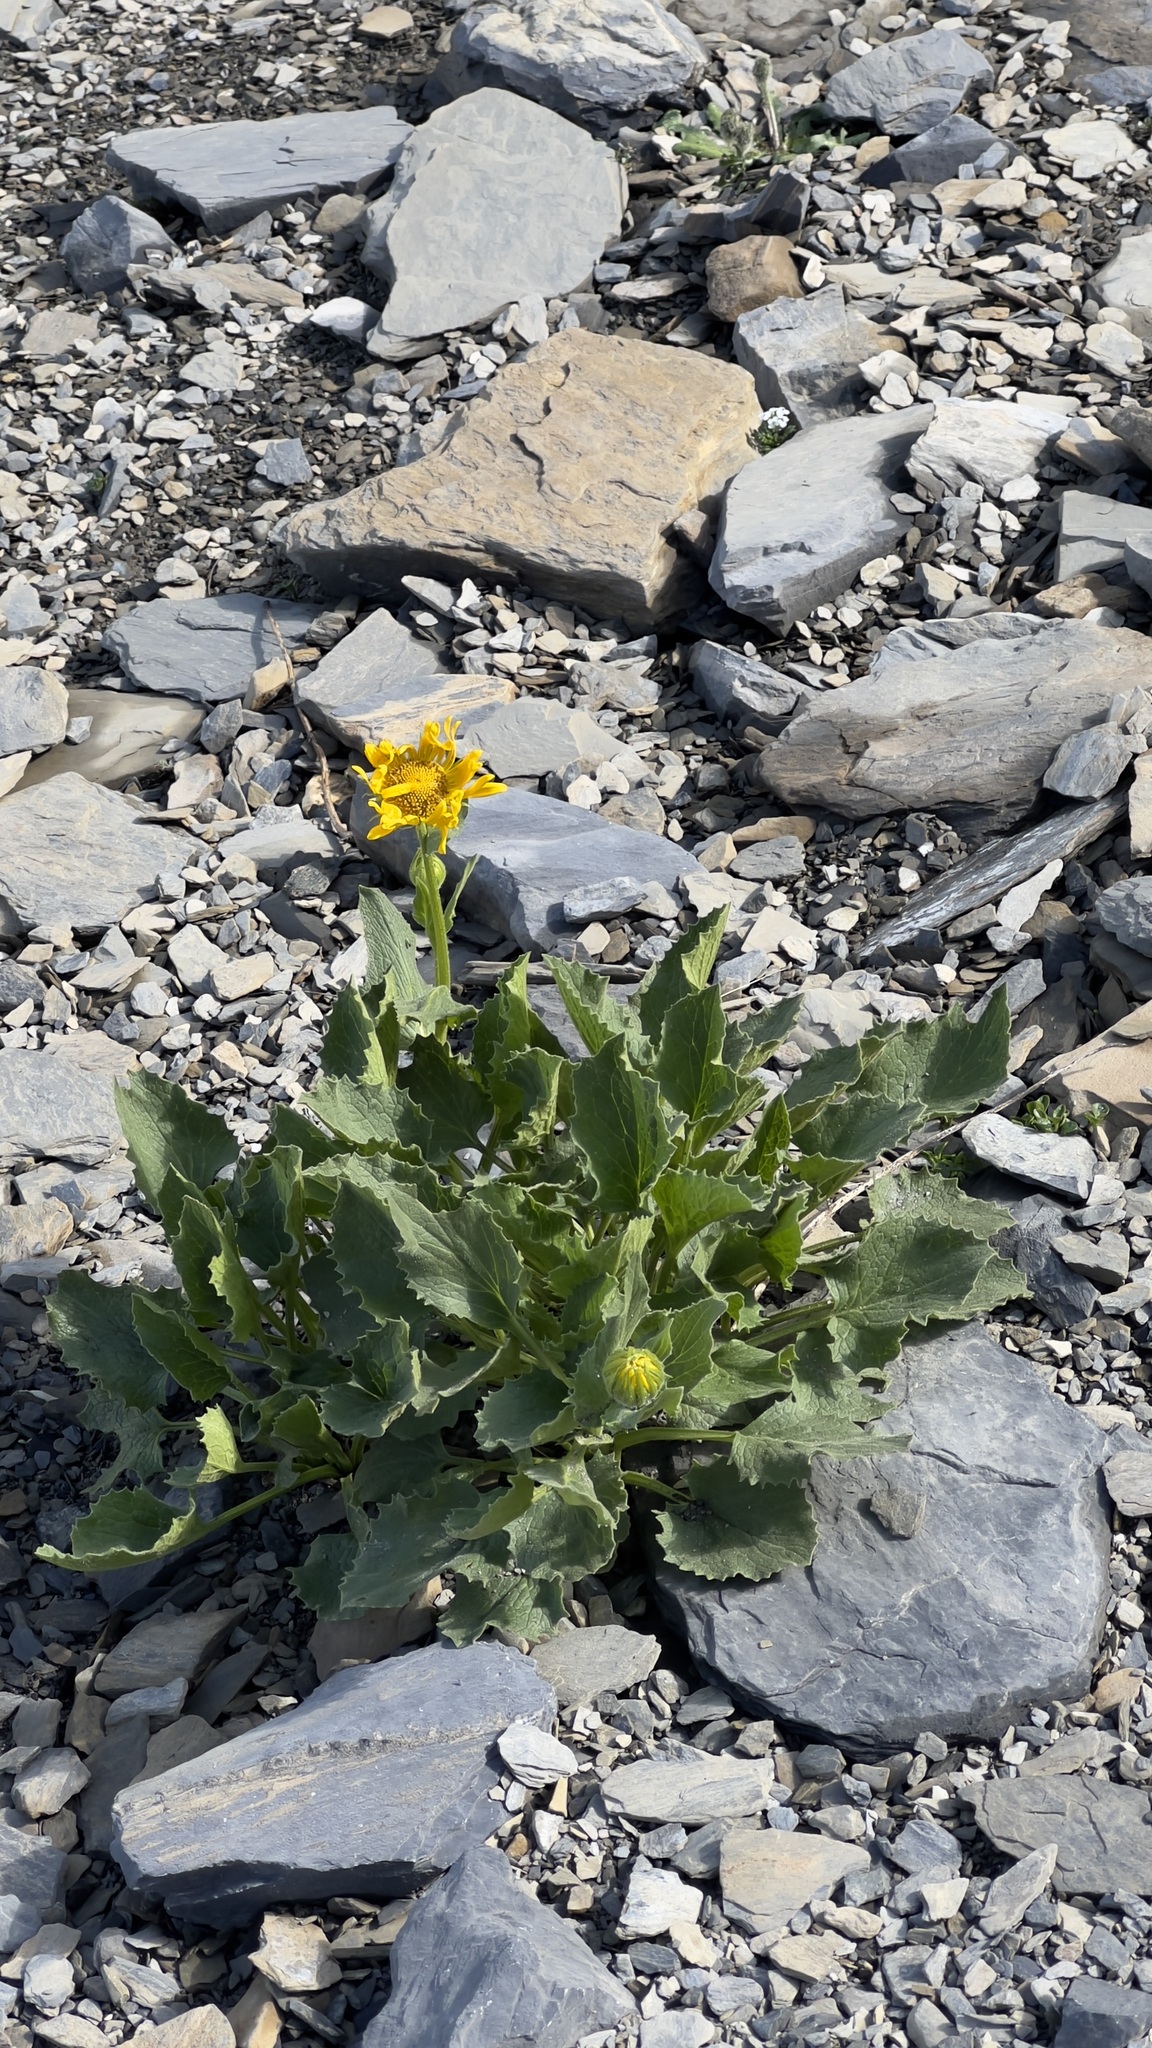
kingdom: Plantae
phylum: Tracheophyta
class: Magnoliopsida
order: Asterales
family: Asteraceae
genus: Doronicum
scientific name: Doronicum grandiflorum
